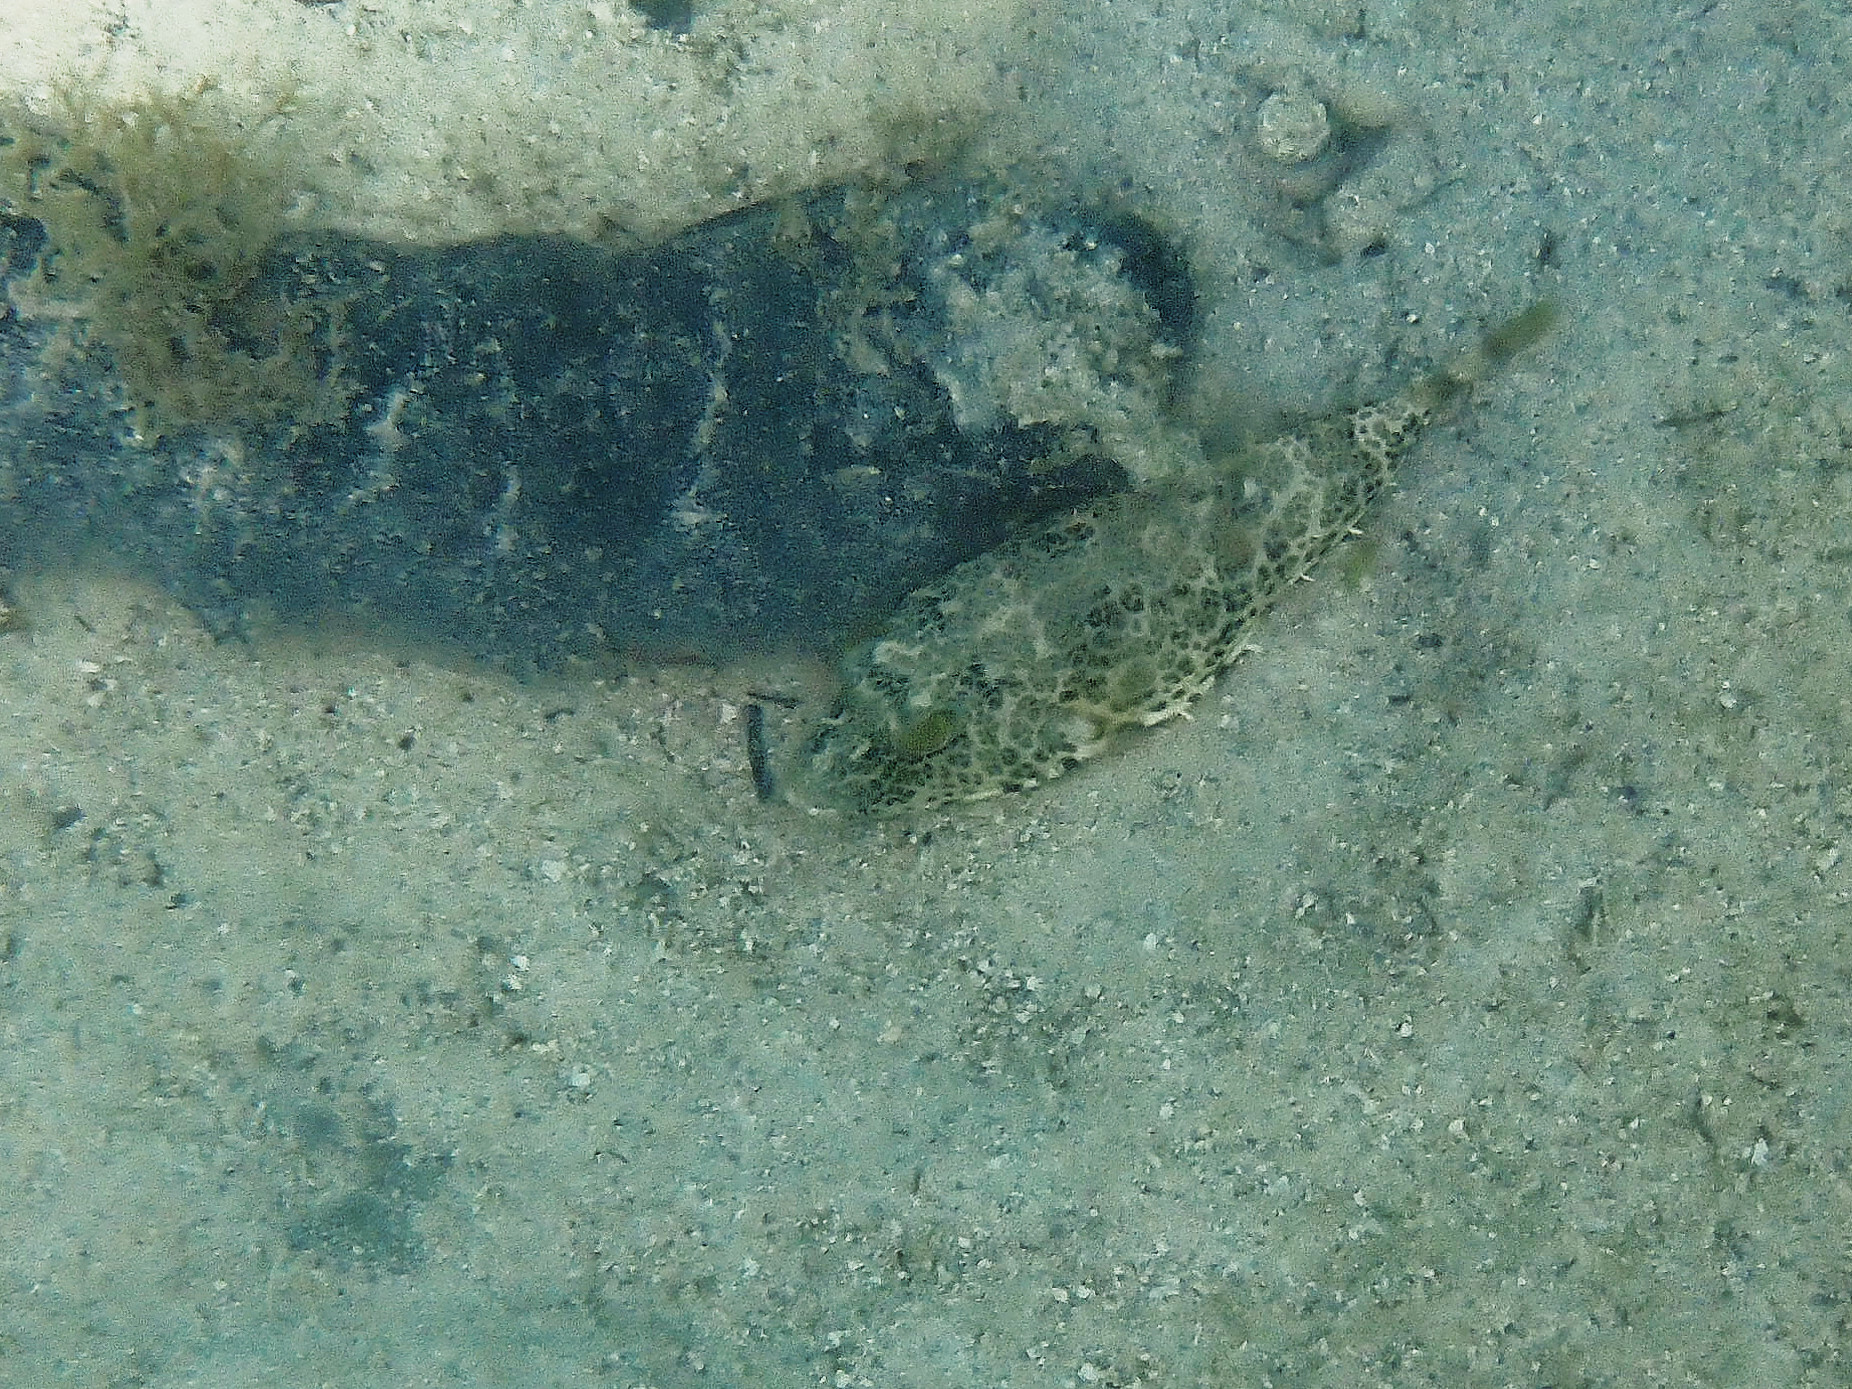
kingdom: Animalia
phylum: Chordata
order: Tetraodontiformes
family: Tetraodontidae
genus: Sphoeroides
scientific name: Sphoeroides greeleyi
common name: Green puffer
